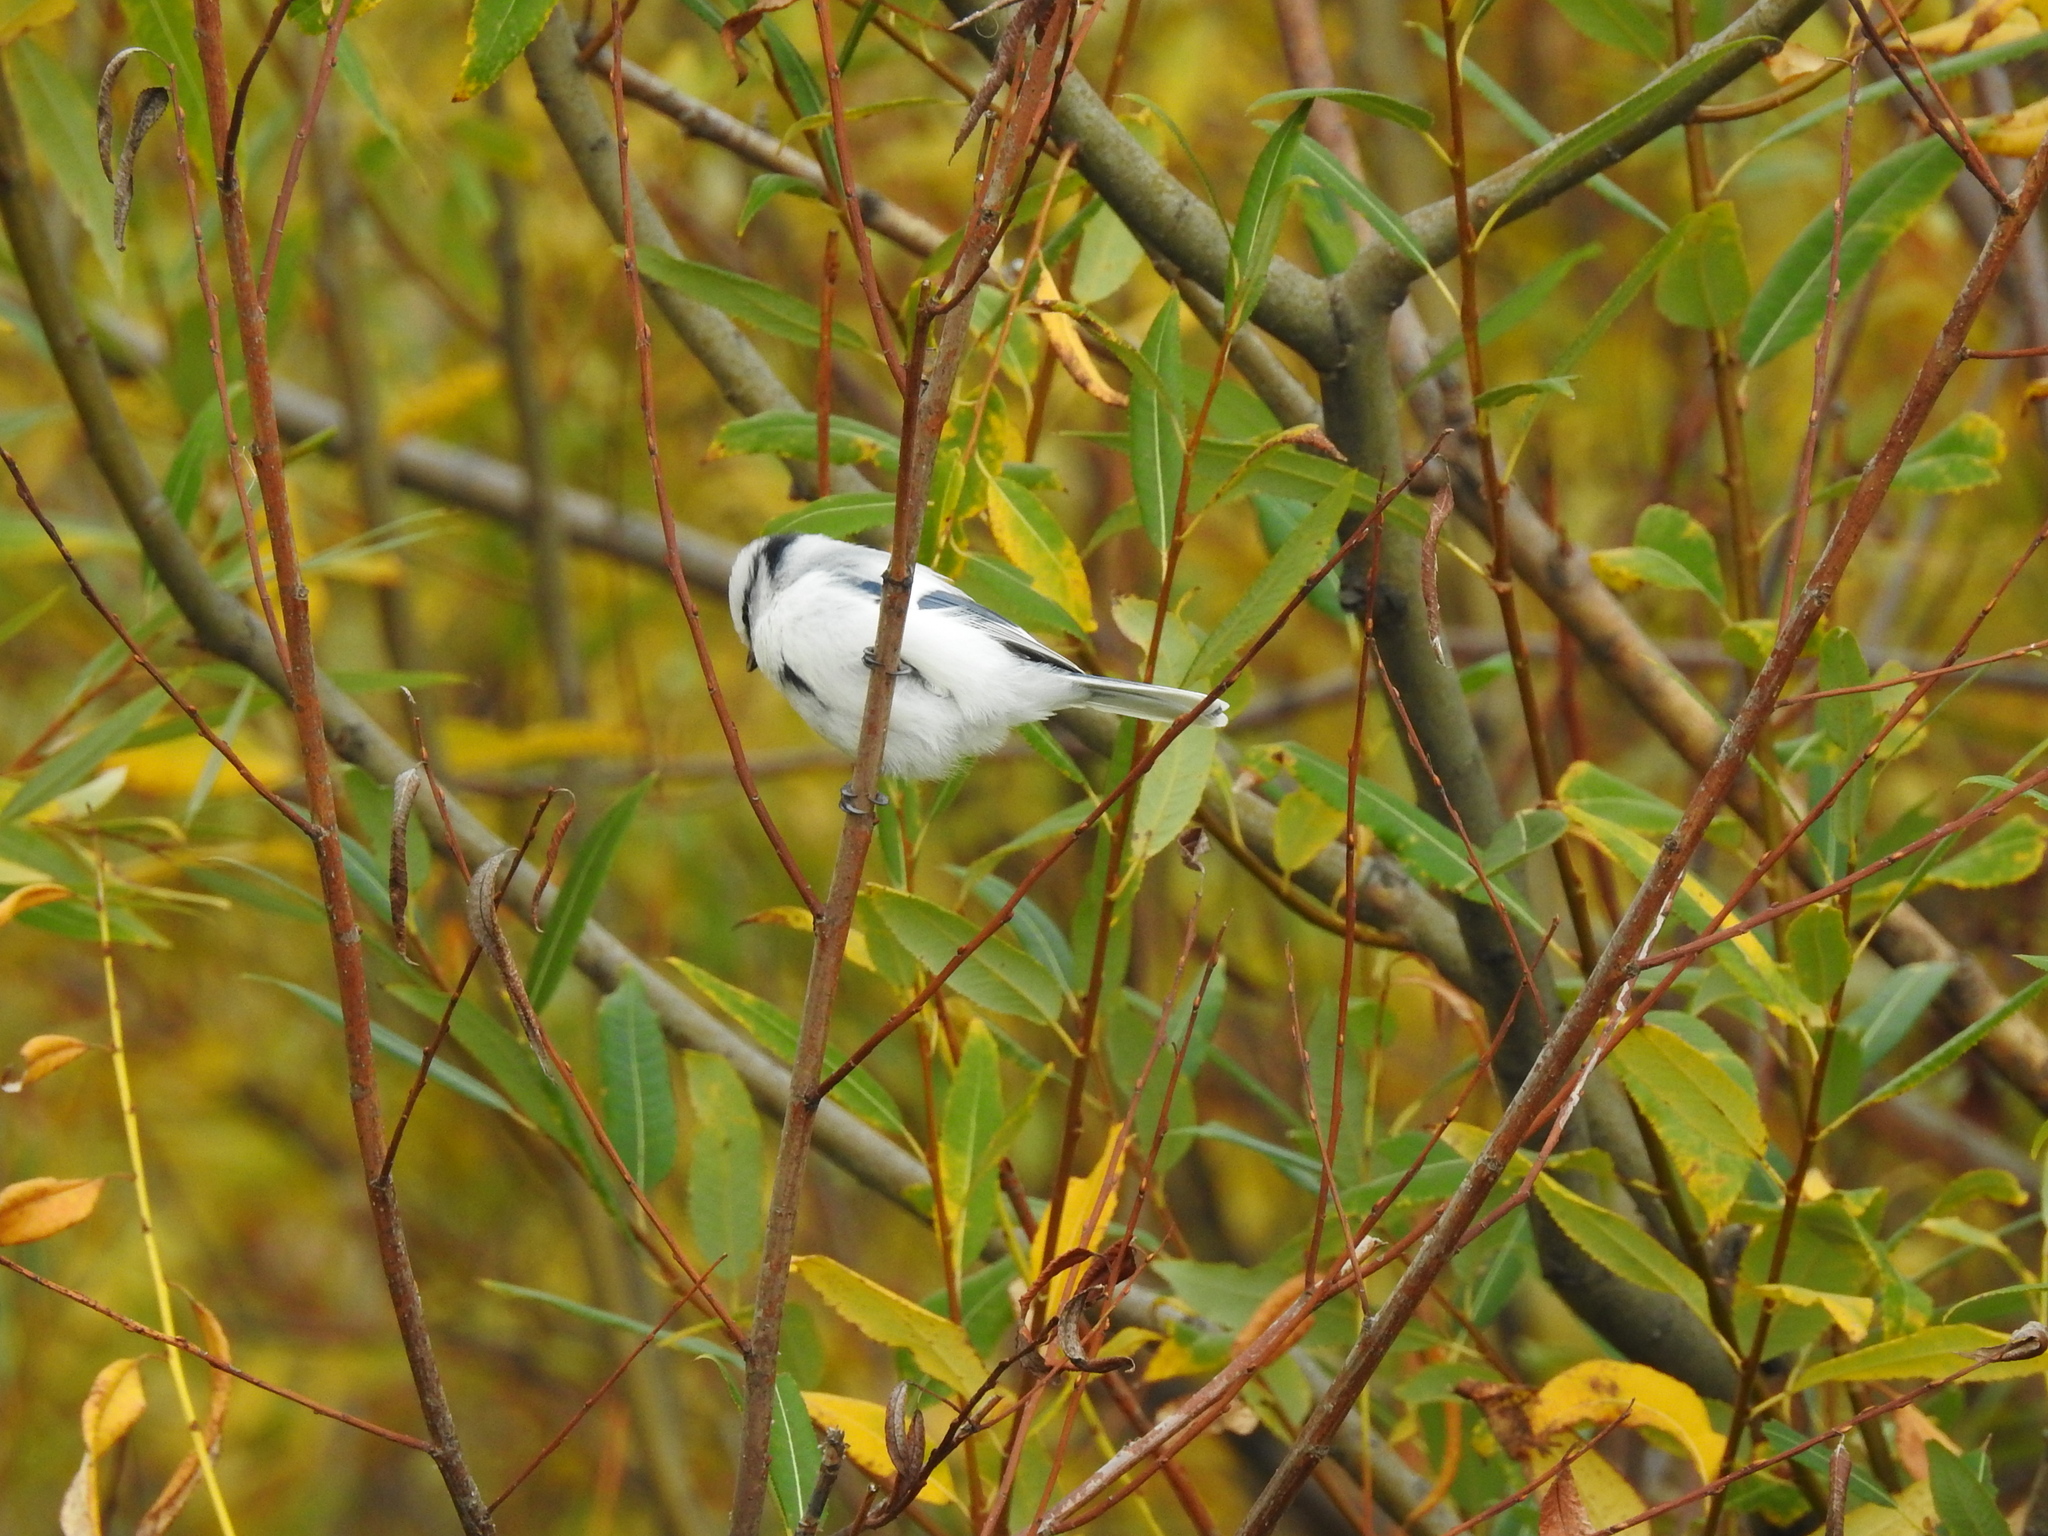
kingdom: Animalia
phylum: Chordata
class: Aves
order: Passeriformes
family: Paridae
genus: Cyanistes
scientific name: Cyanistes cyanus
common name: Azure tit
